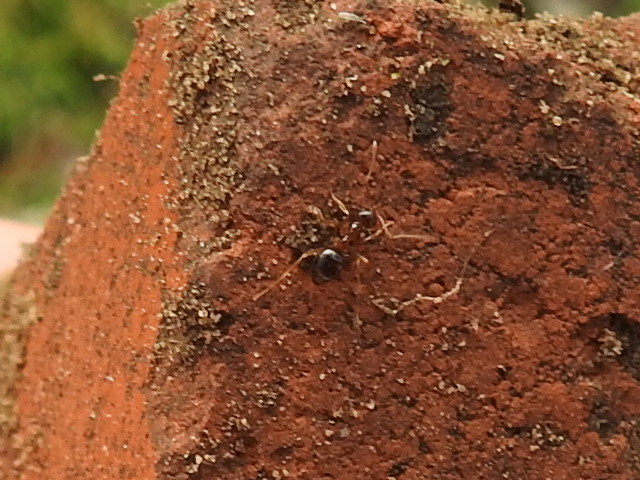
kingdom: Animalia
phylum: Arthropoda
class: Insecta
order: Hymenoptera
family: Formicidae
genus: Prenolepis
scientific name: Prenolepis imparis
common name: Small honey ant
